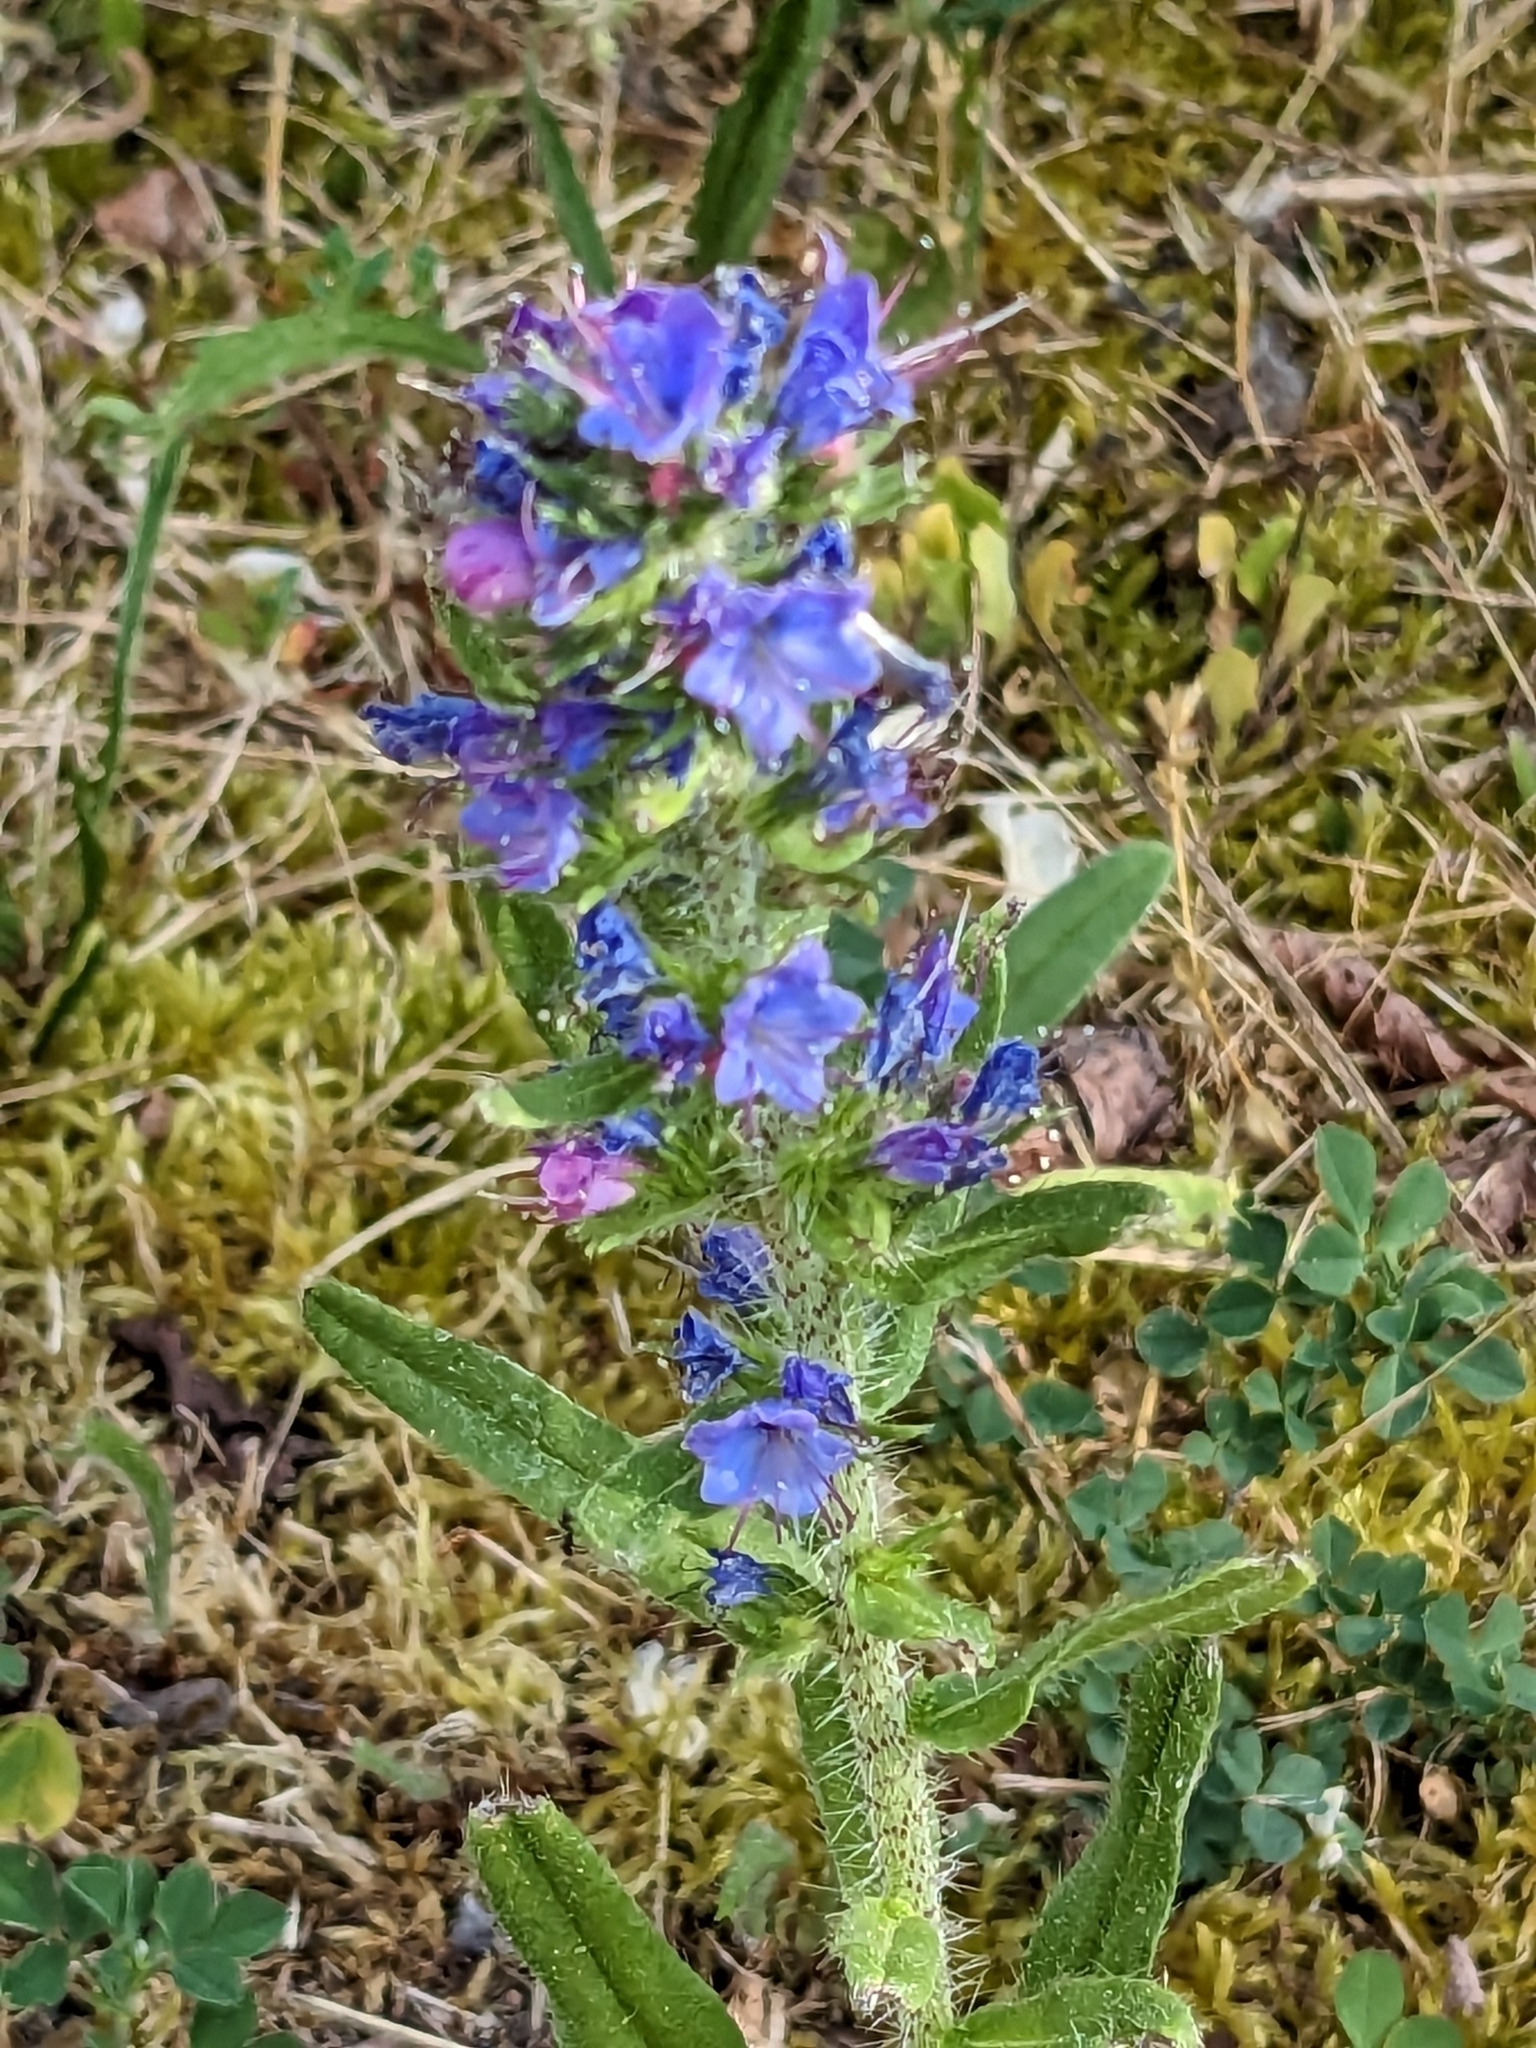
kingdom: Plantae
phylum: Tracheophyta
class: Magnoliopsida
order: Boraginales
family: Boraginaceae
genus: Echium
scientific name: Echium vulgare
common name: Common viper's bugloss
